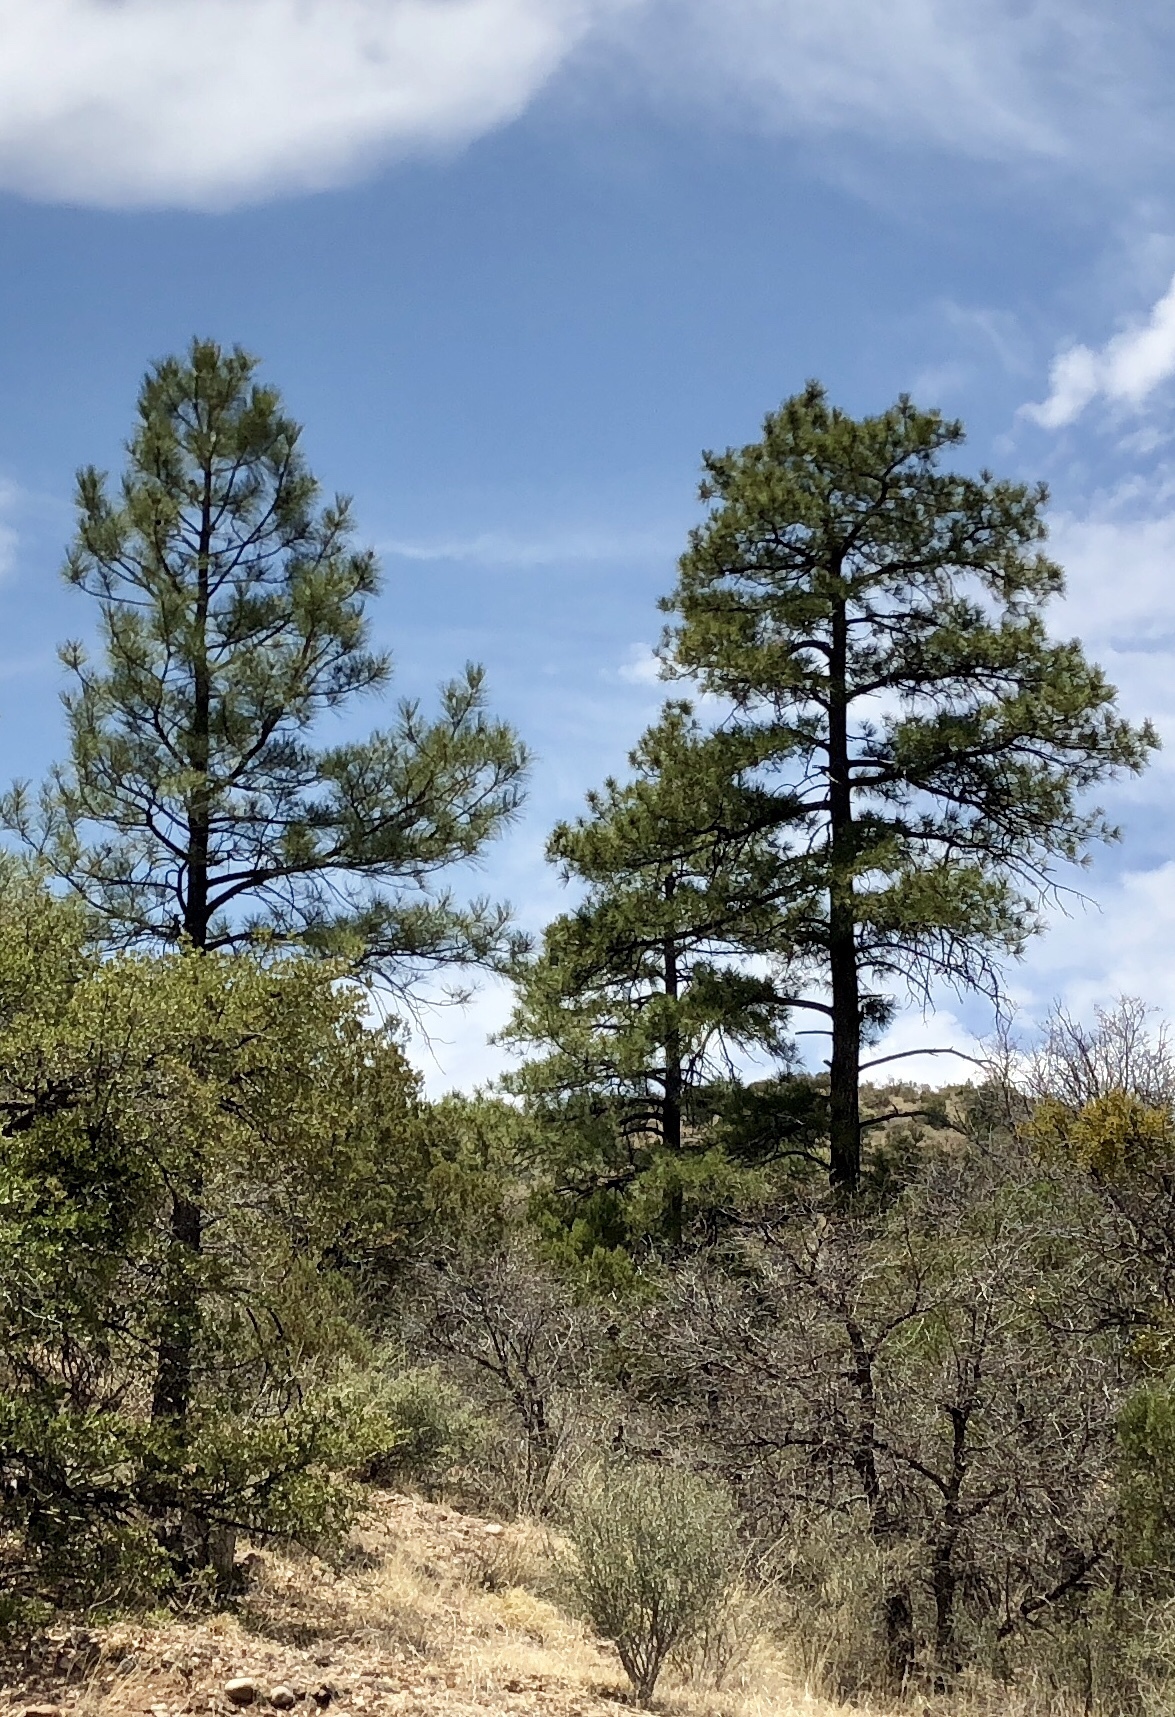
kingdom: Plantae
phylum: Tracheophyta
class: Pinopsida
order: Pinales
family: Pinaceae
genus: Pinus
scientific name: Pinus ponderosa
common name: Western yellow-pine
